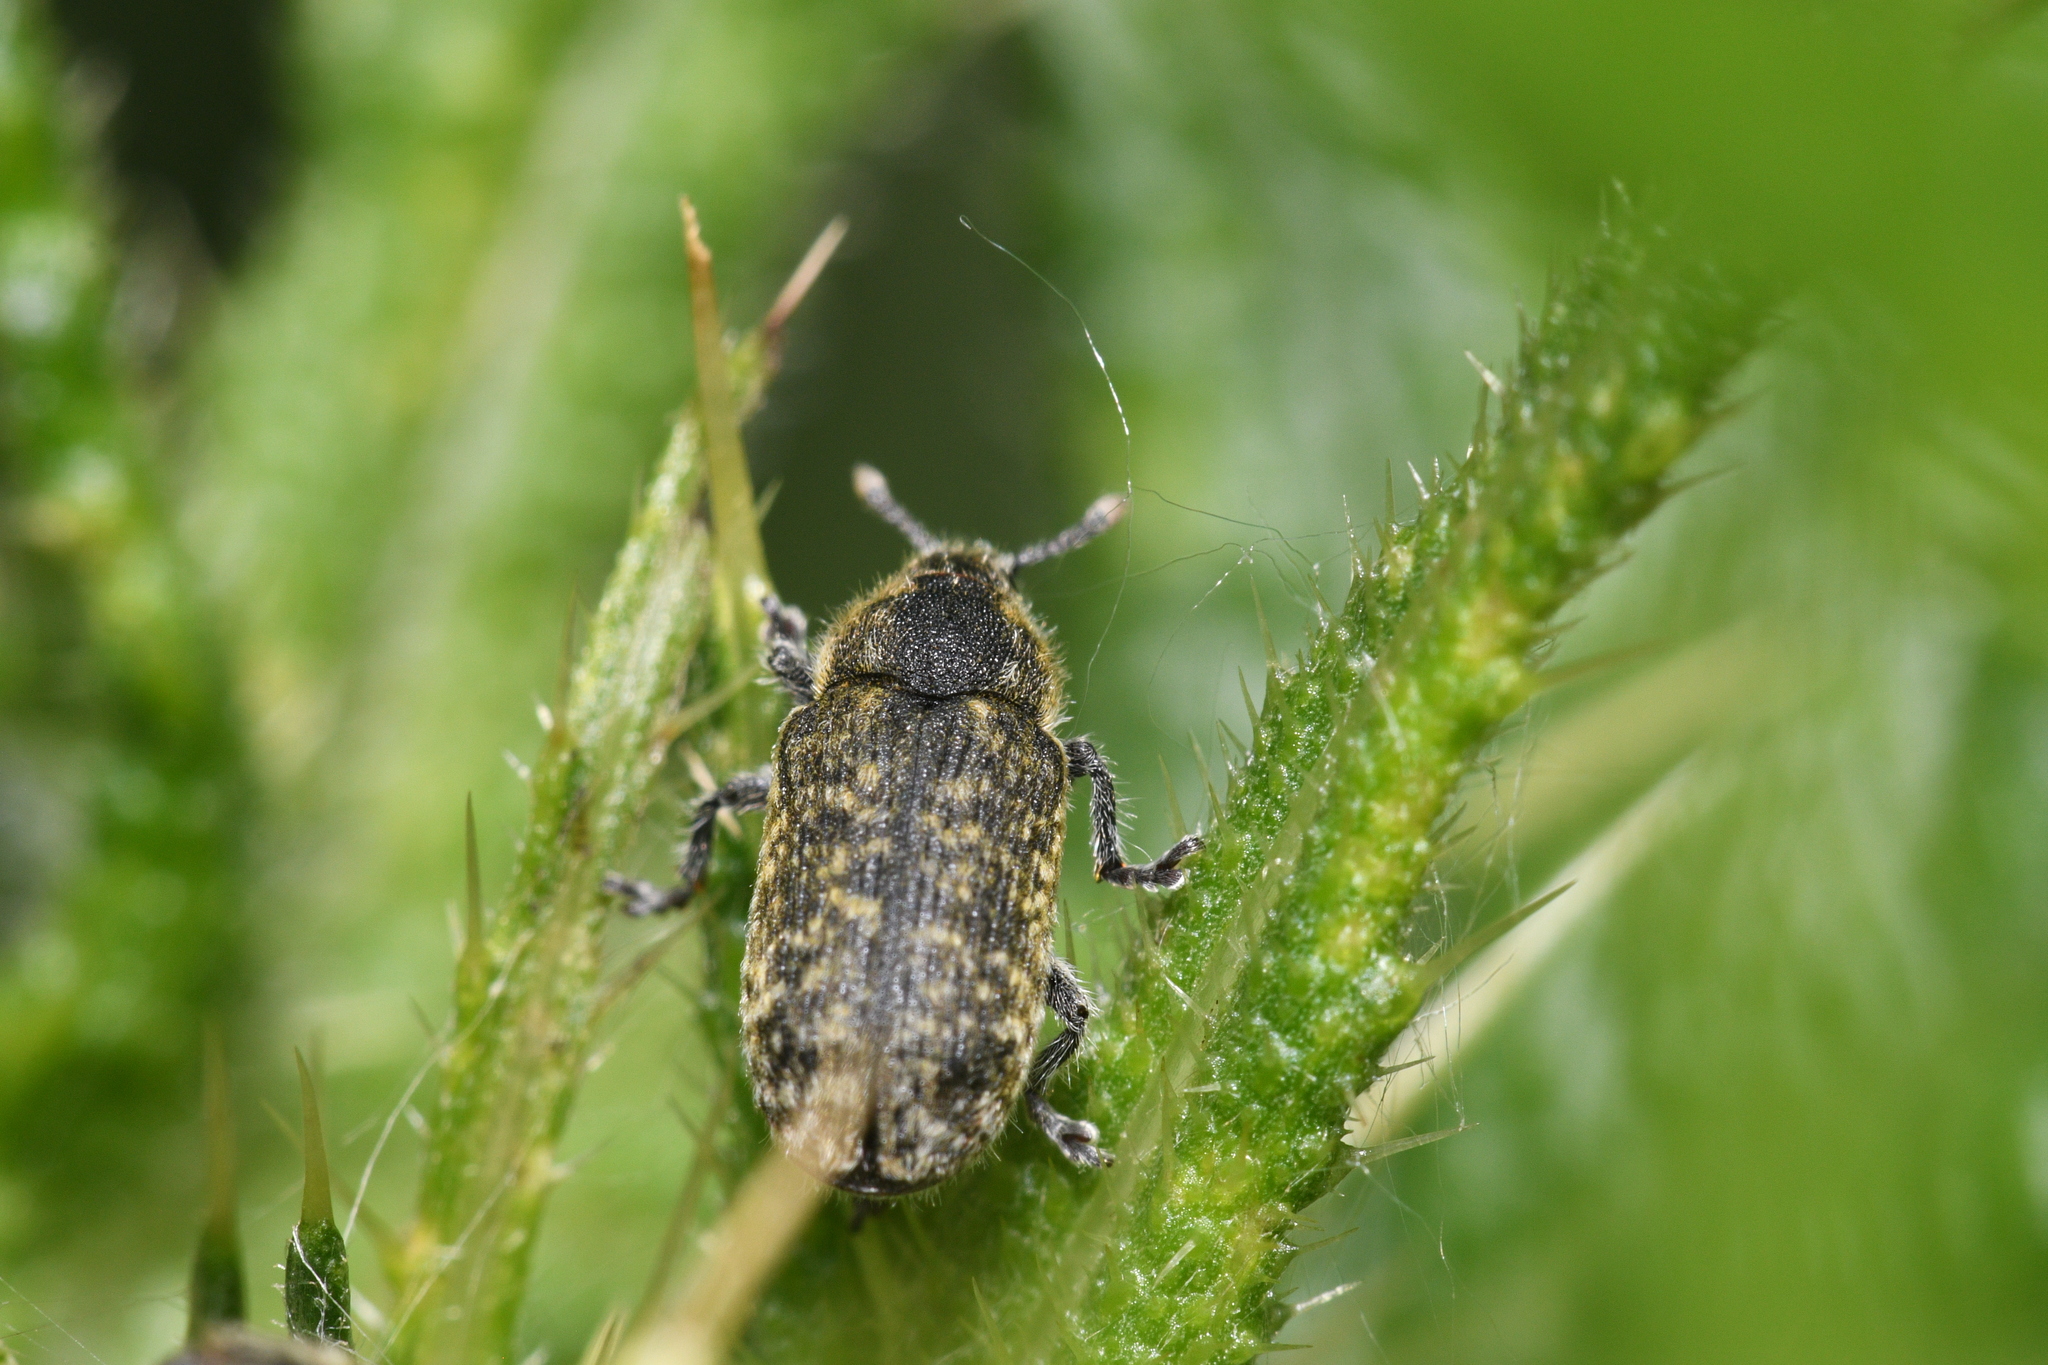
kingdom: Animalia
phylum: Arthropoda
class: Insecta
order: Coleoptera
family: Curculionidae
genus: Rhinocyllus
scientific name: Rhinocyllus conicus
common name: Weevil
